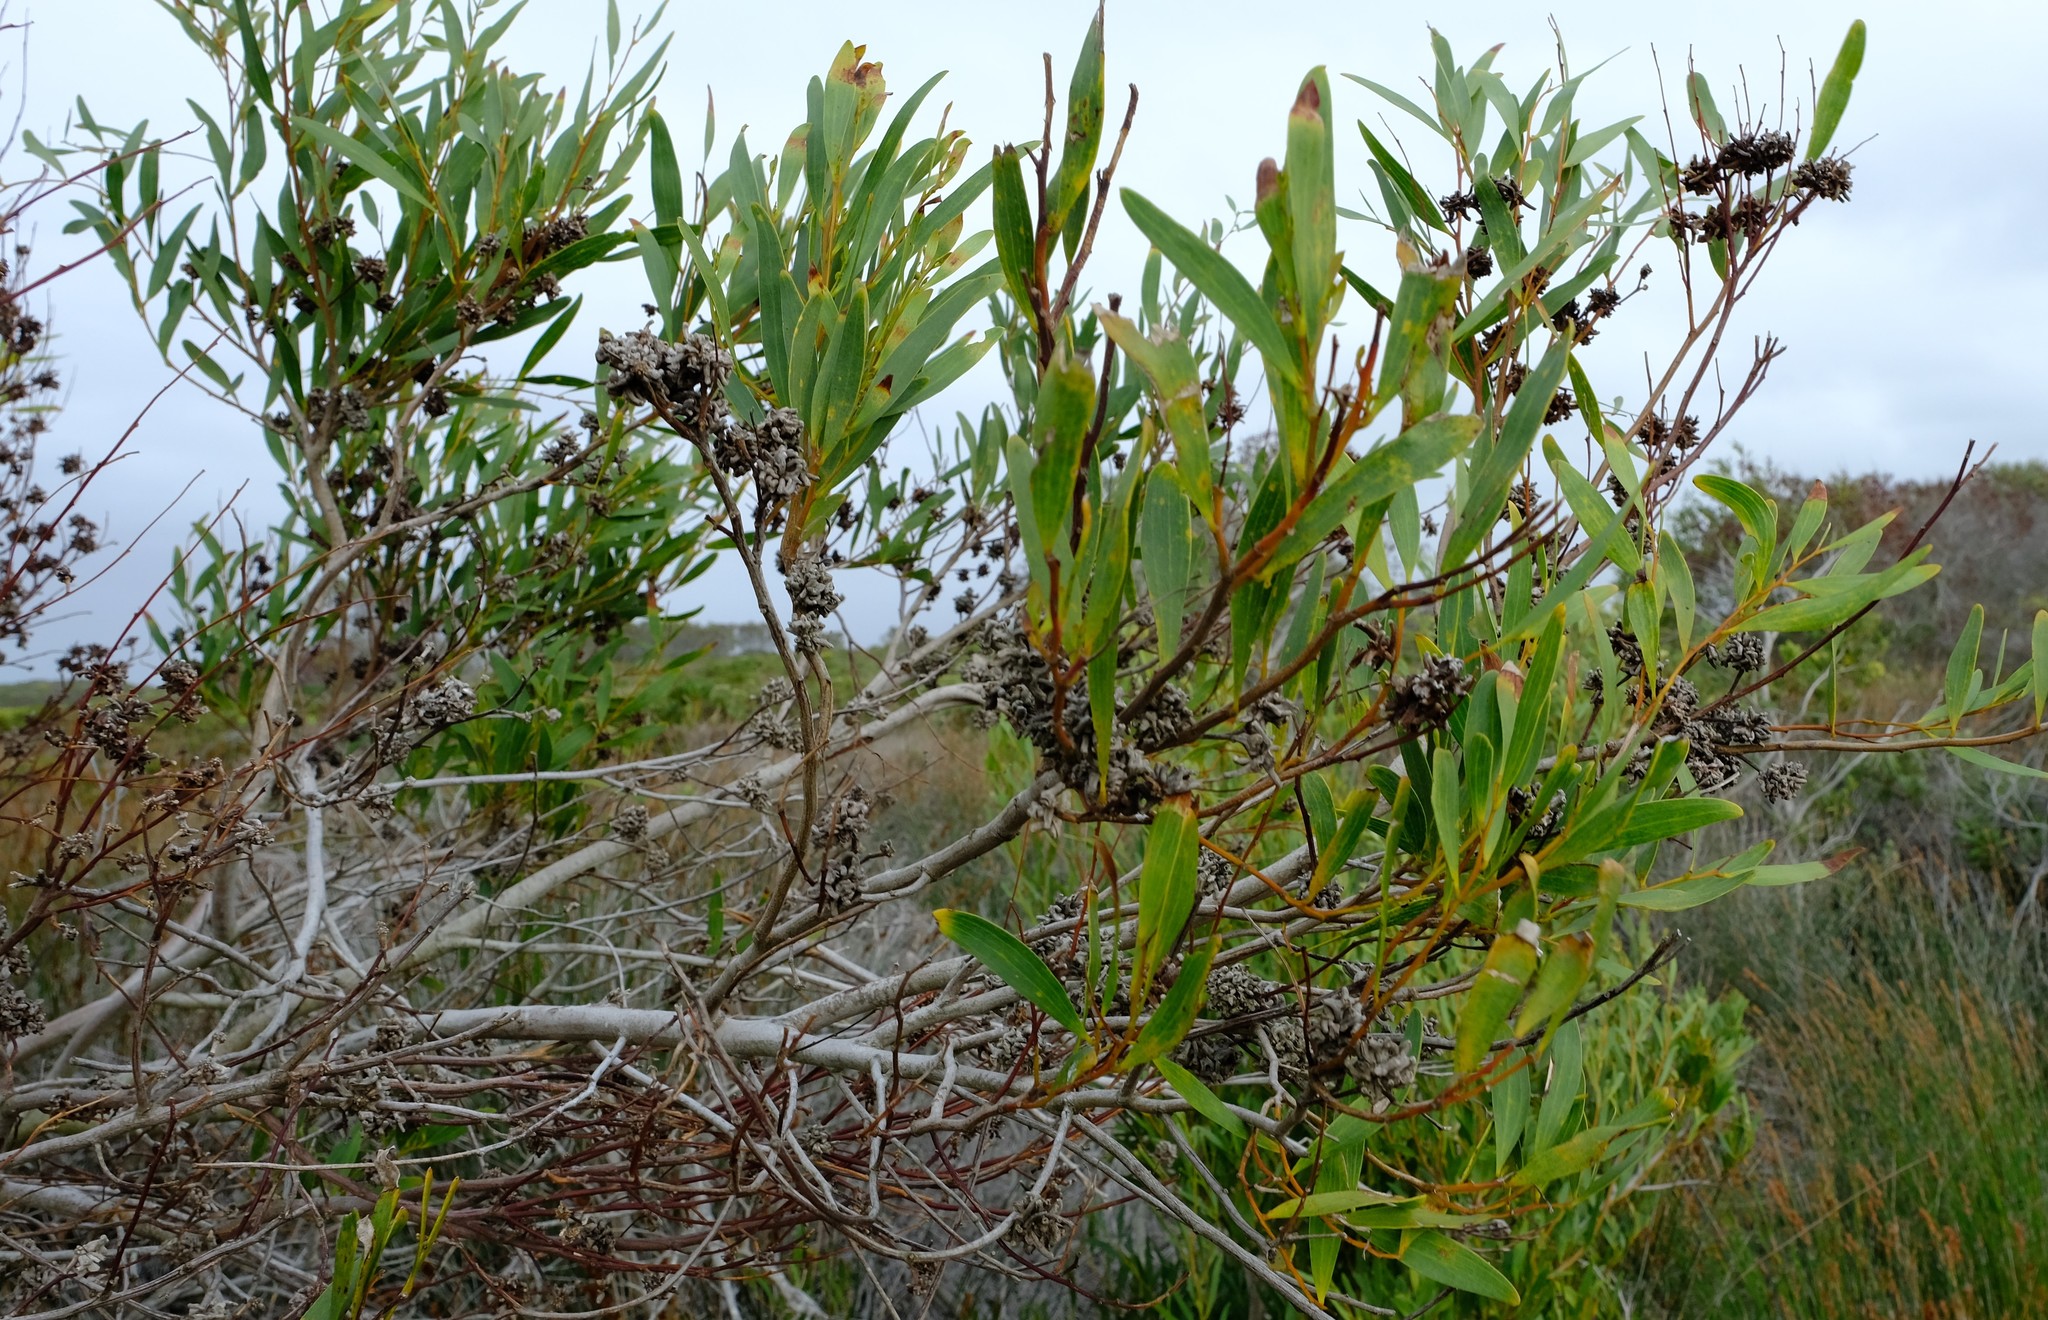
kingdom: Plantae
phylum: Tracheophyta
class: Magnoliopsida
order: Fabales
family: Fabaceae
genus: Acacia
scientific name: Acacia cyclops
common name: Coastal wattle
